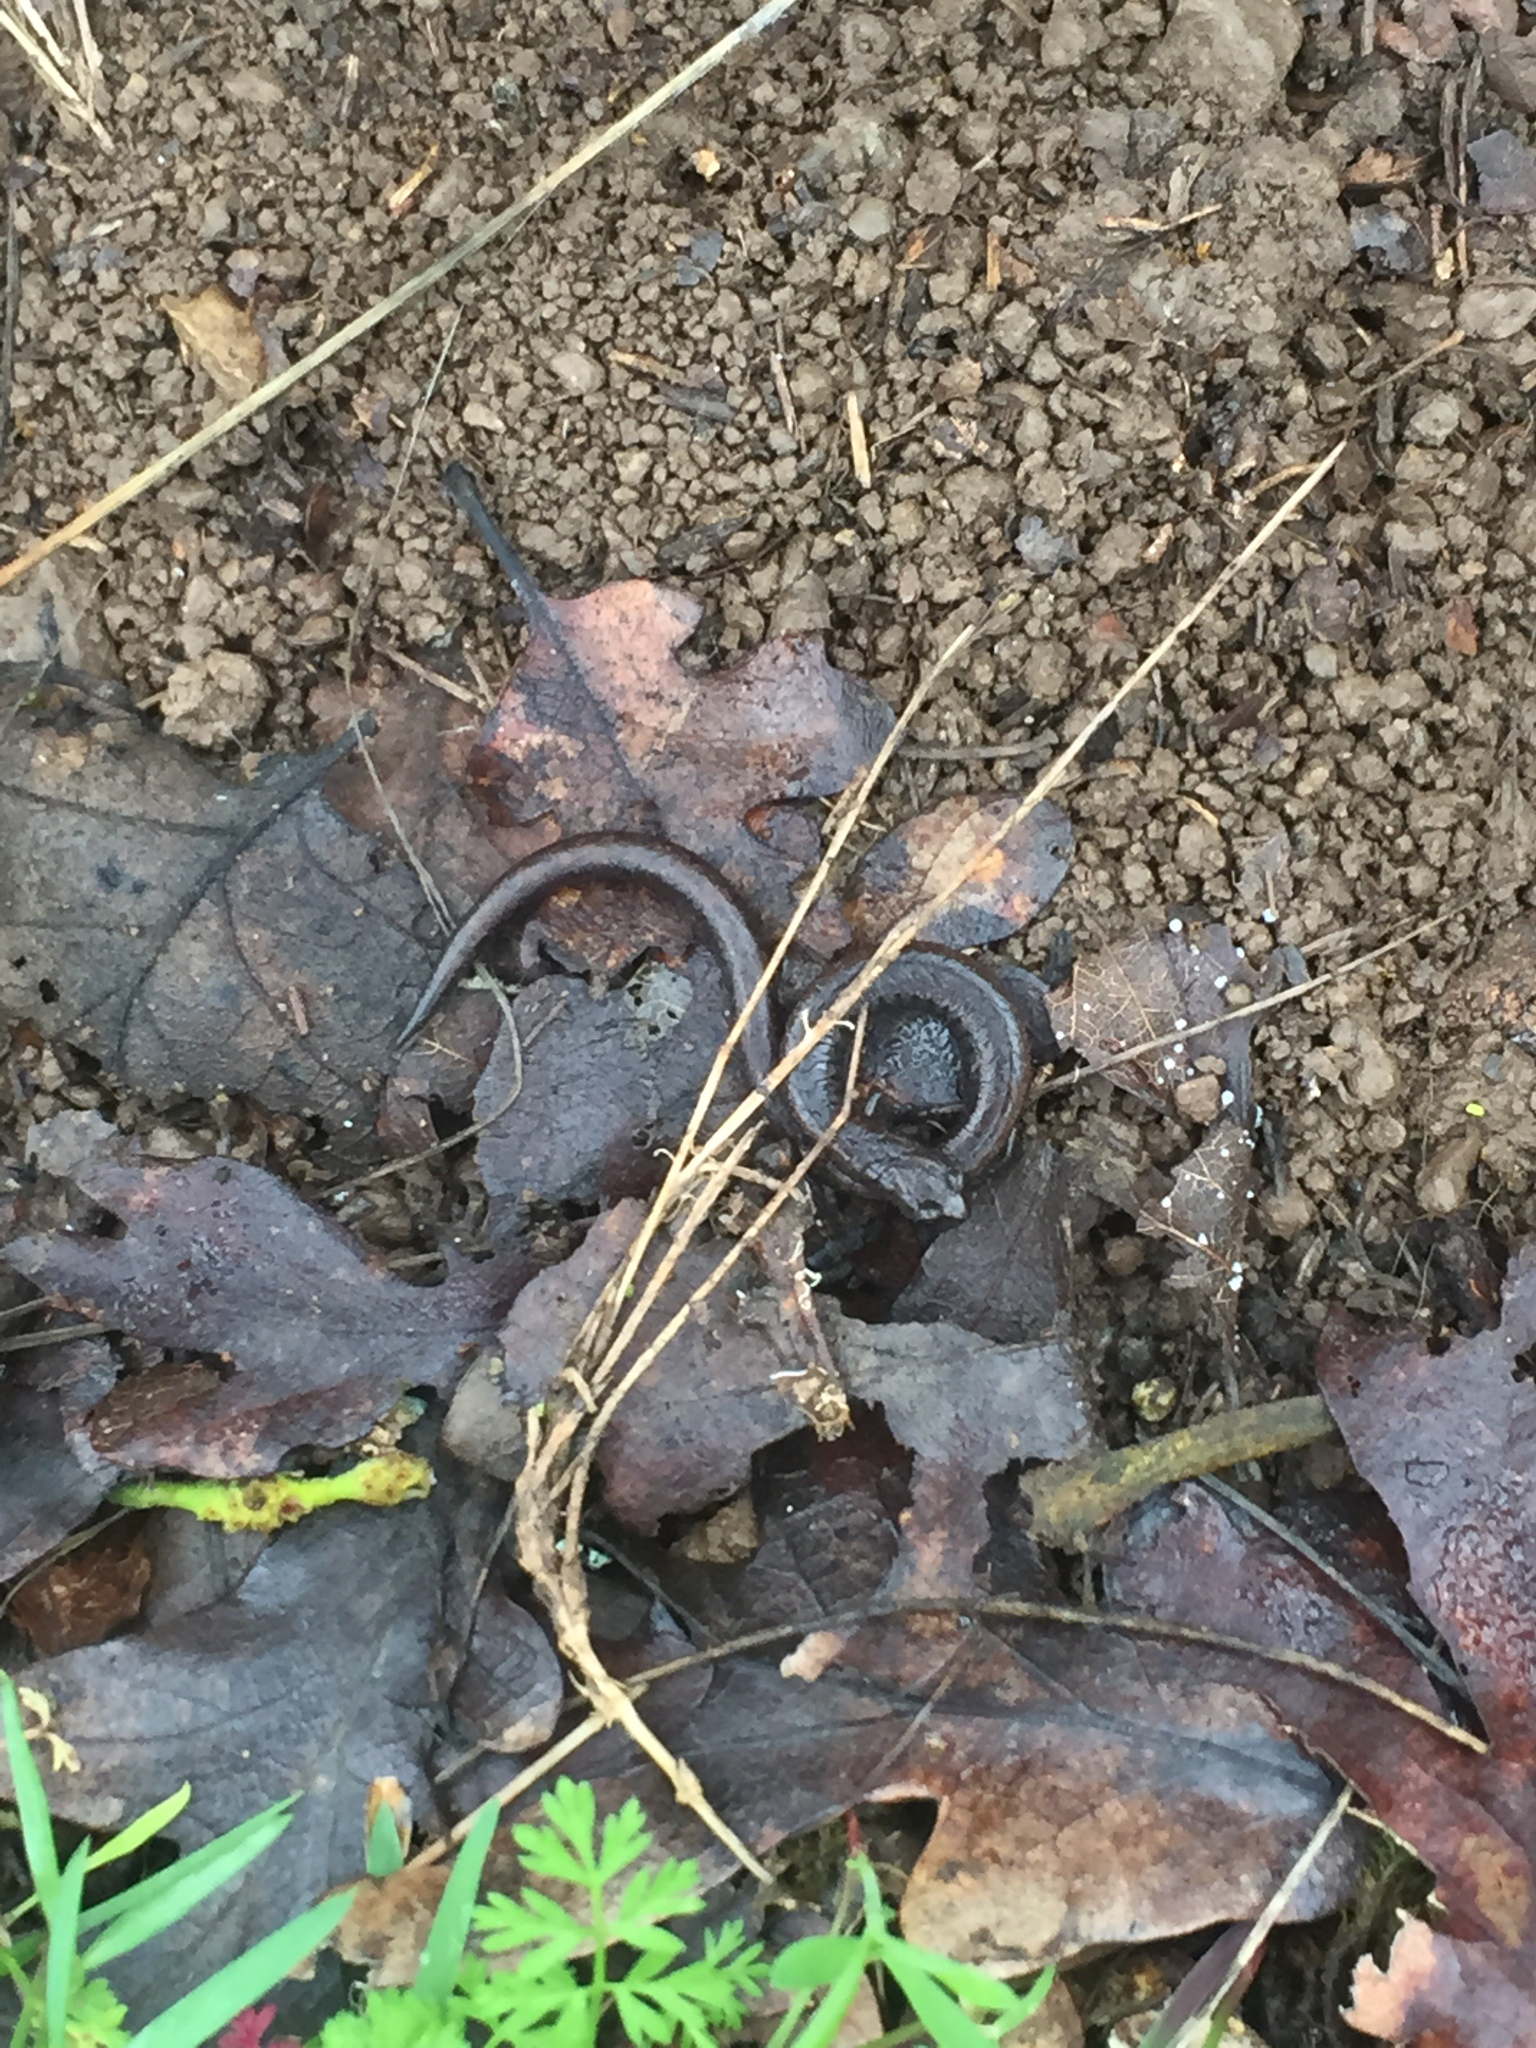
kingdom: Animalia
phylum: Chordata
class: Amphibia
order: Caudata
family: Plethodontidae
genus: Batrachoseps
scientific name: Batrachoseps attenuatus
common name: California slender salamander
